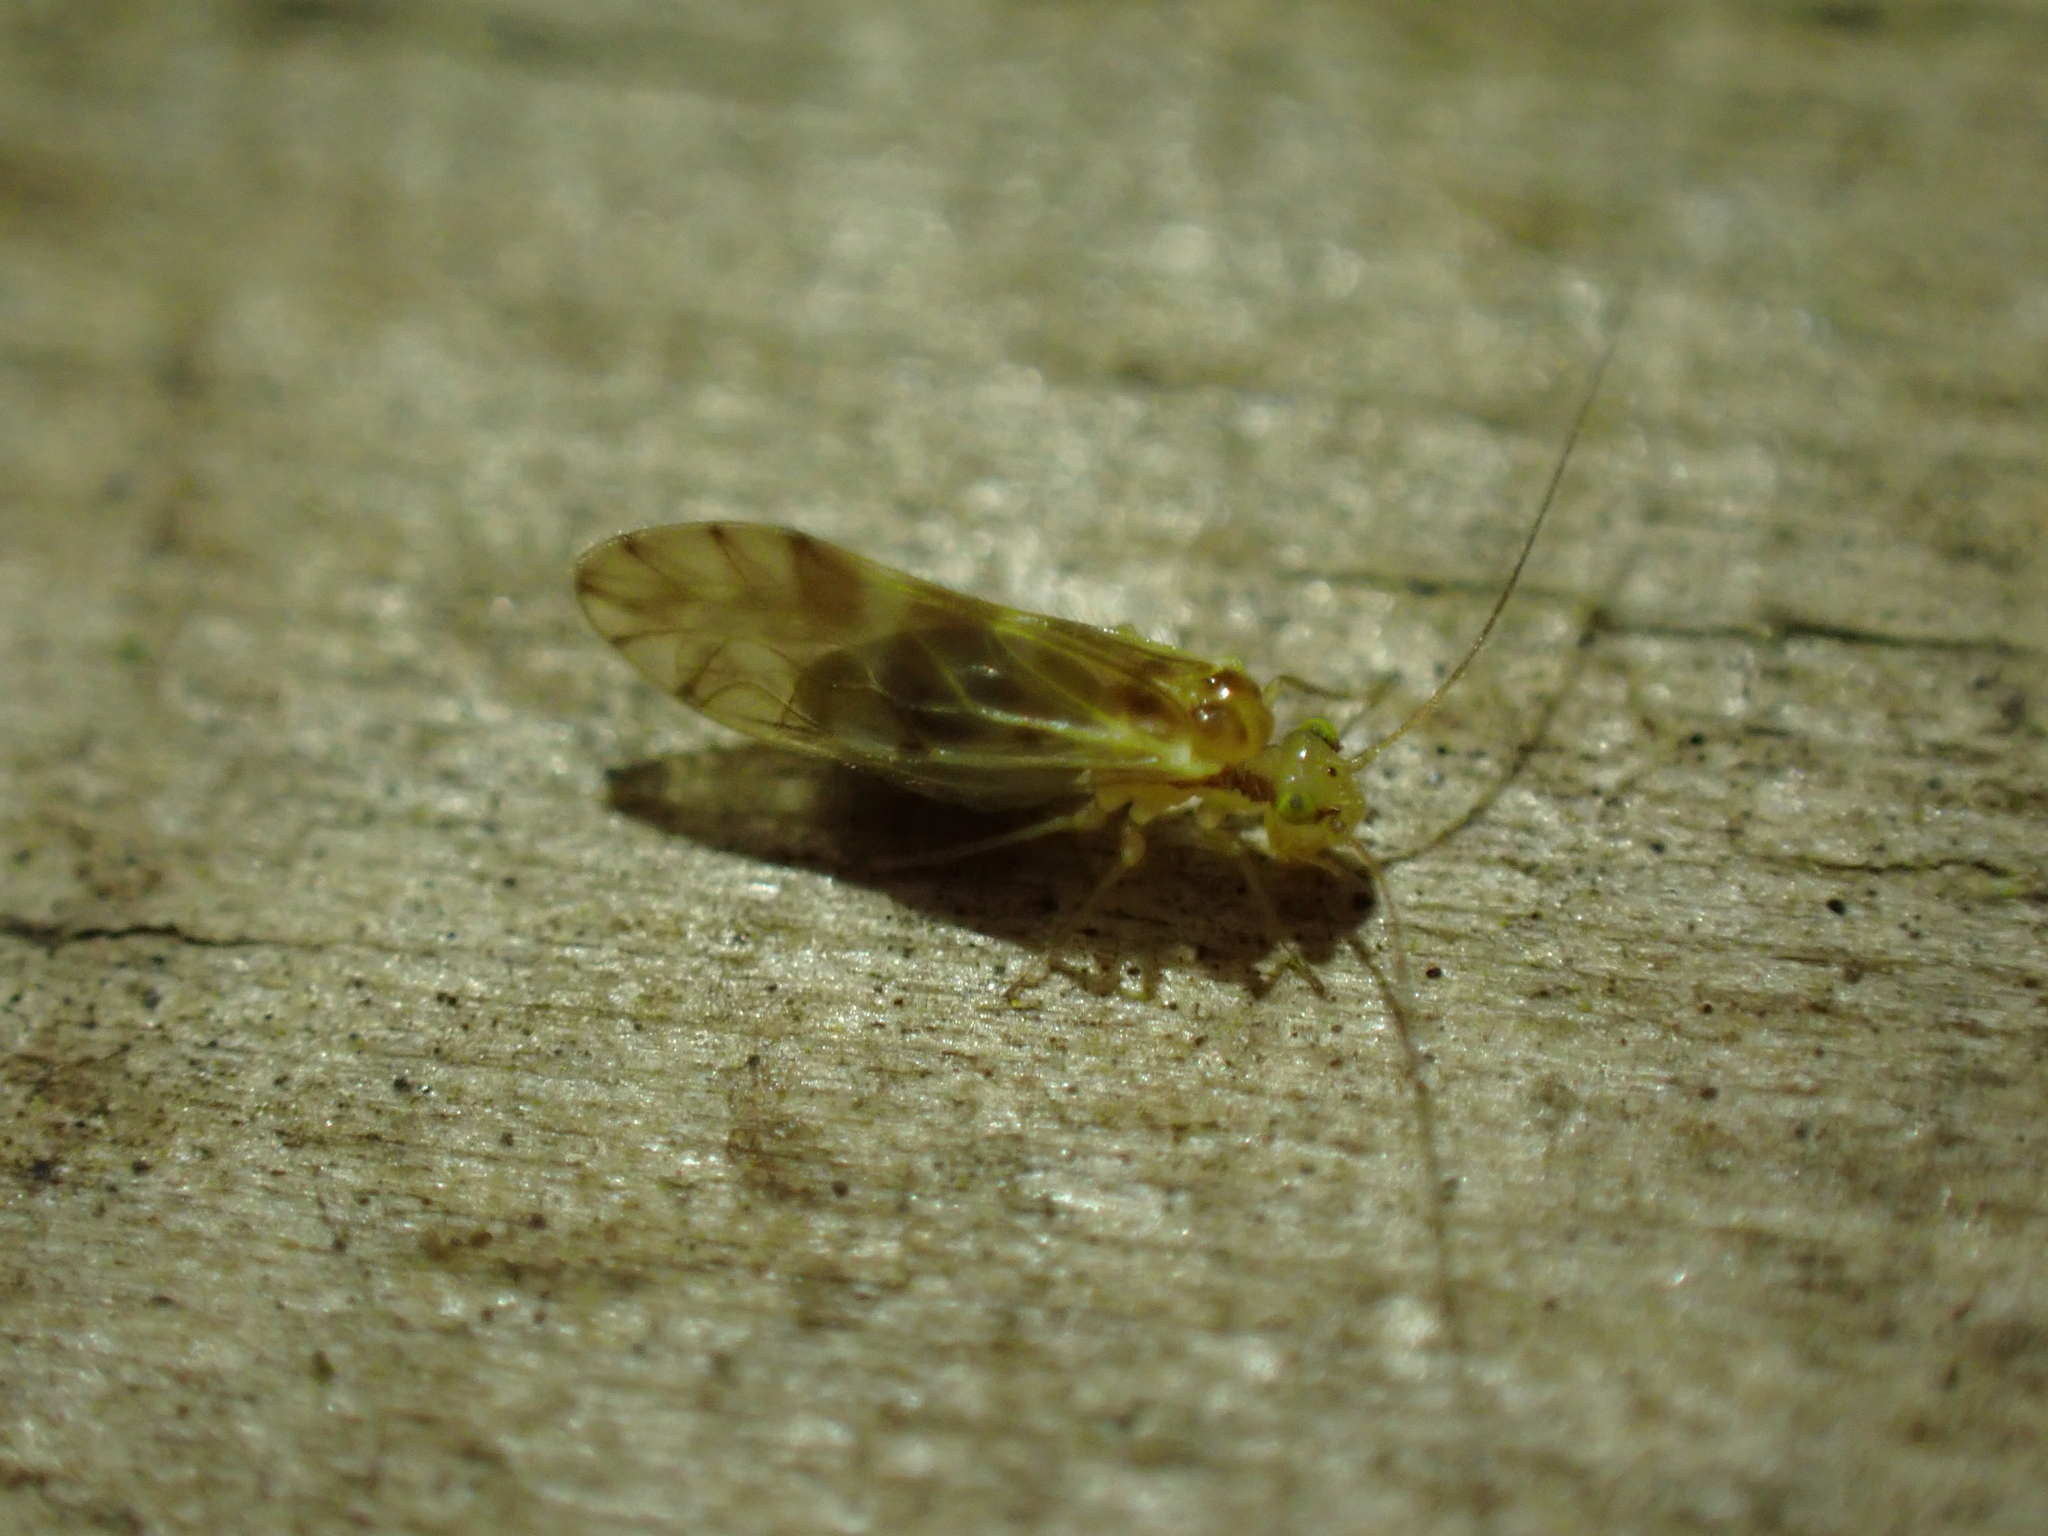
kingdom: Animalia
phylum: Arthropoda
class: Insecta
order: Psocodea
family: Paracaeciliidae
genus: Chilenocaecilius
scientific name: Chilenocaecilius ornatipennis
